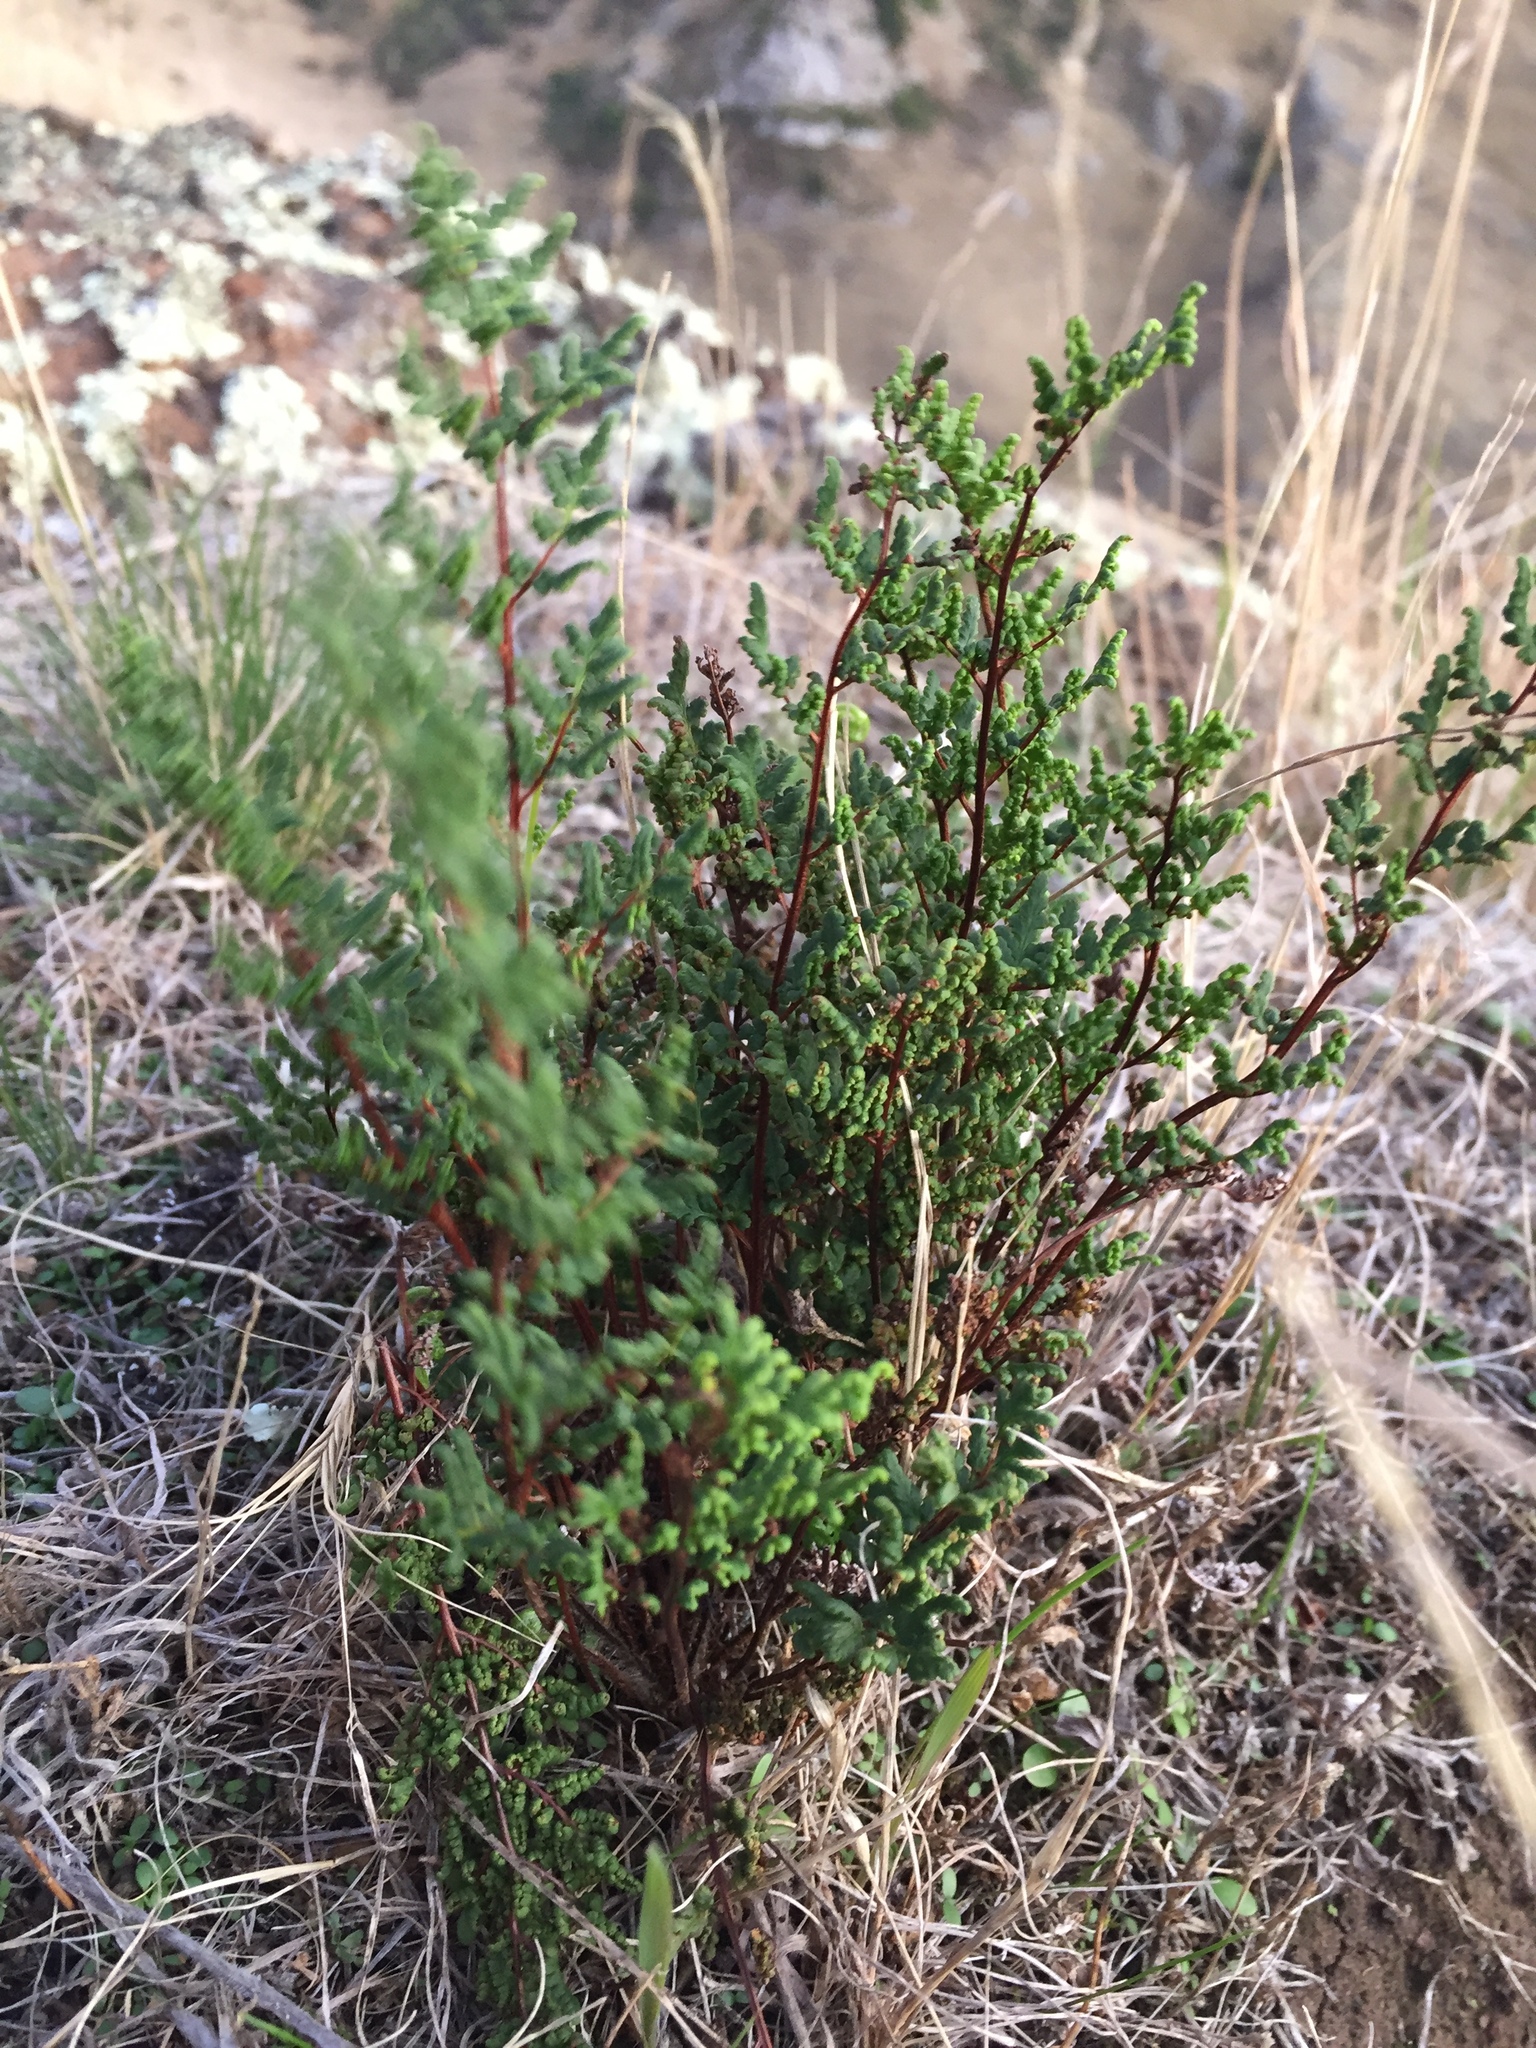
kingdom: Plantae
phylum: Tracheophyta
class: Polypodiopsida
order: Polypodiales
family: Pteridaceae
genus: Cheilanthes
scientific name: Cheilanthes sieberi
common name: Mulga fern
